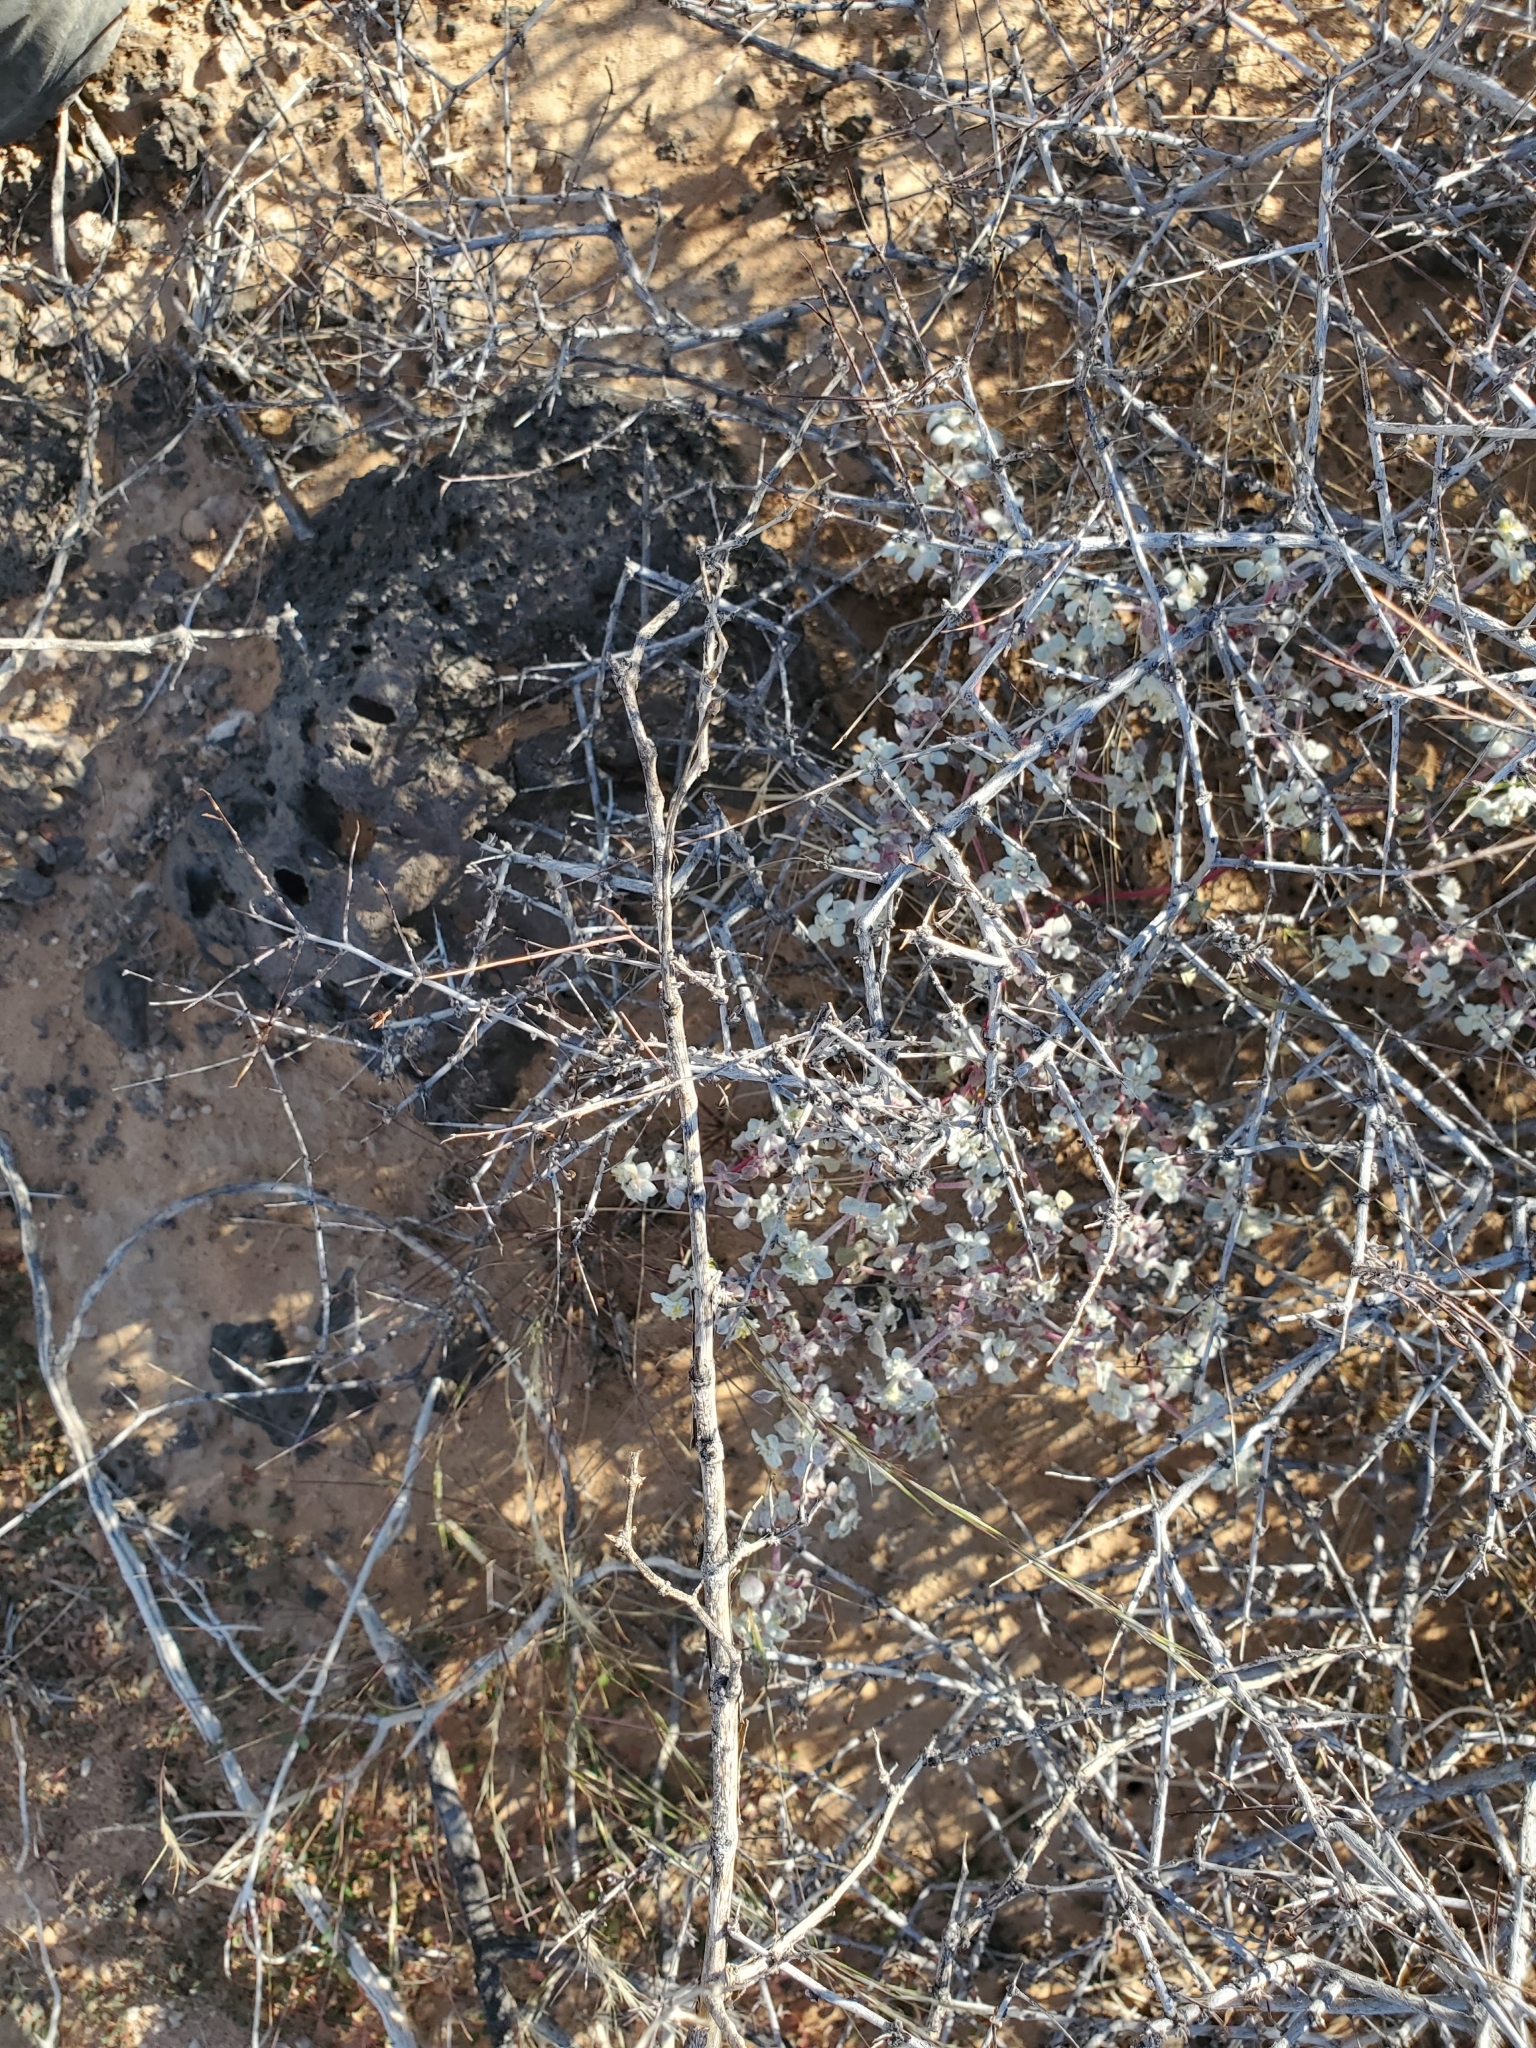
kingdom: Plantae
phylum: Tracheophyta
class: Magnoliopsida
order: Caryophyllales
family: Amaranthaceae
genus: Tidestromia
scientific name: Tidestromia lanuginosa
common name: Woolly tidestromia
